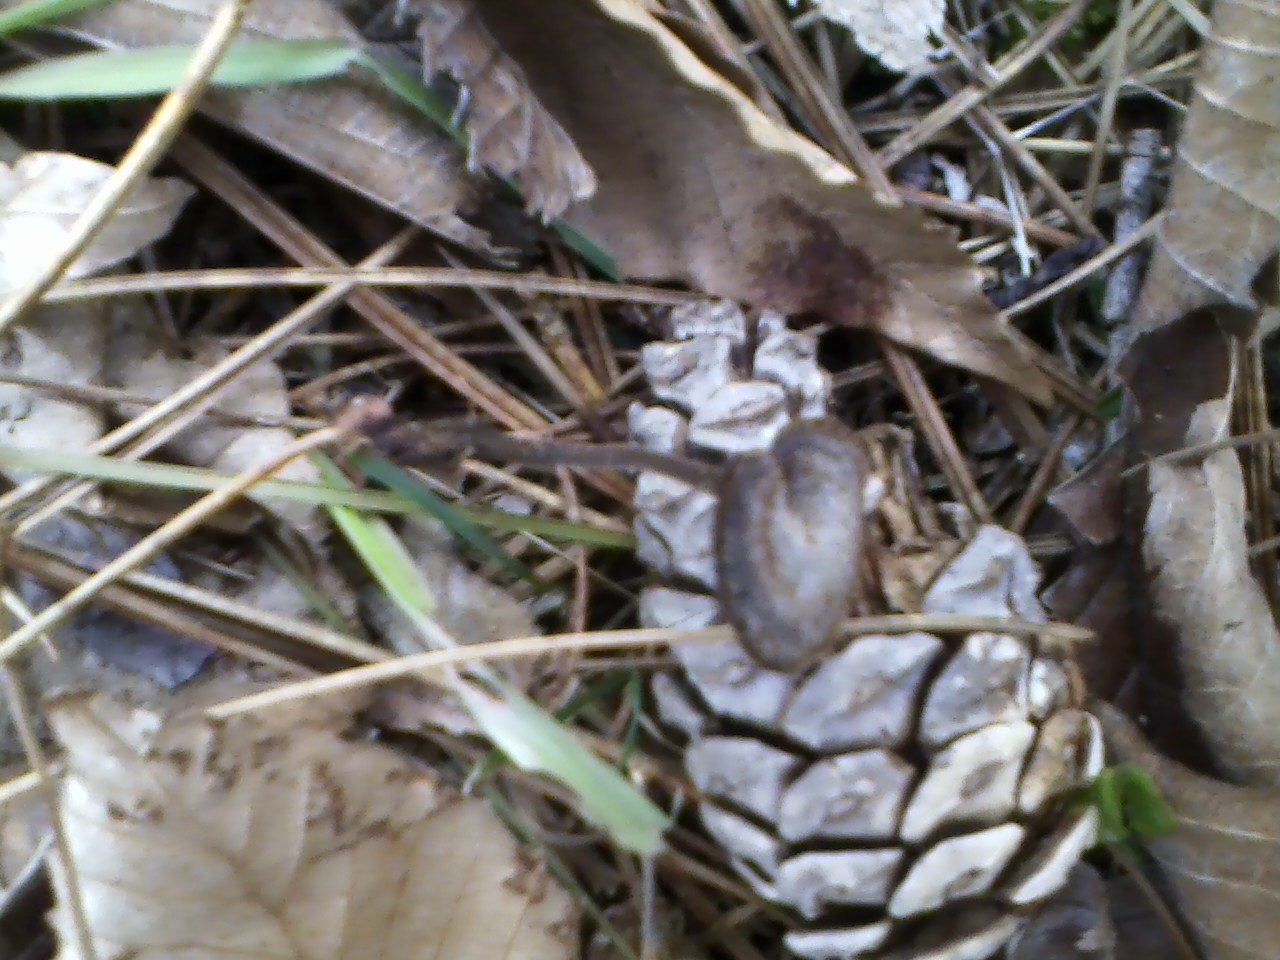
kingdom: Fungi
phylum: Basidiomycota
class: Agaricomycetes
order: Russulales
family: Auriscalpiaceae
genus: Auriscalpium
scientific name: Auriscalpium vulgare
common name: Earpick fungus
